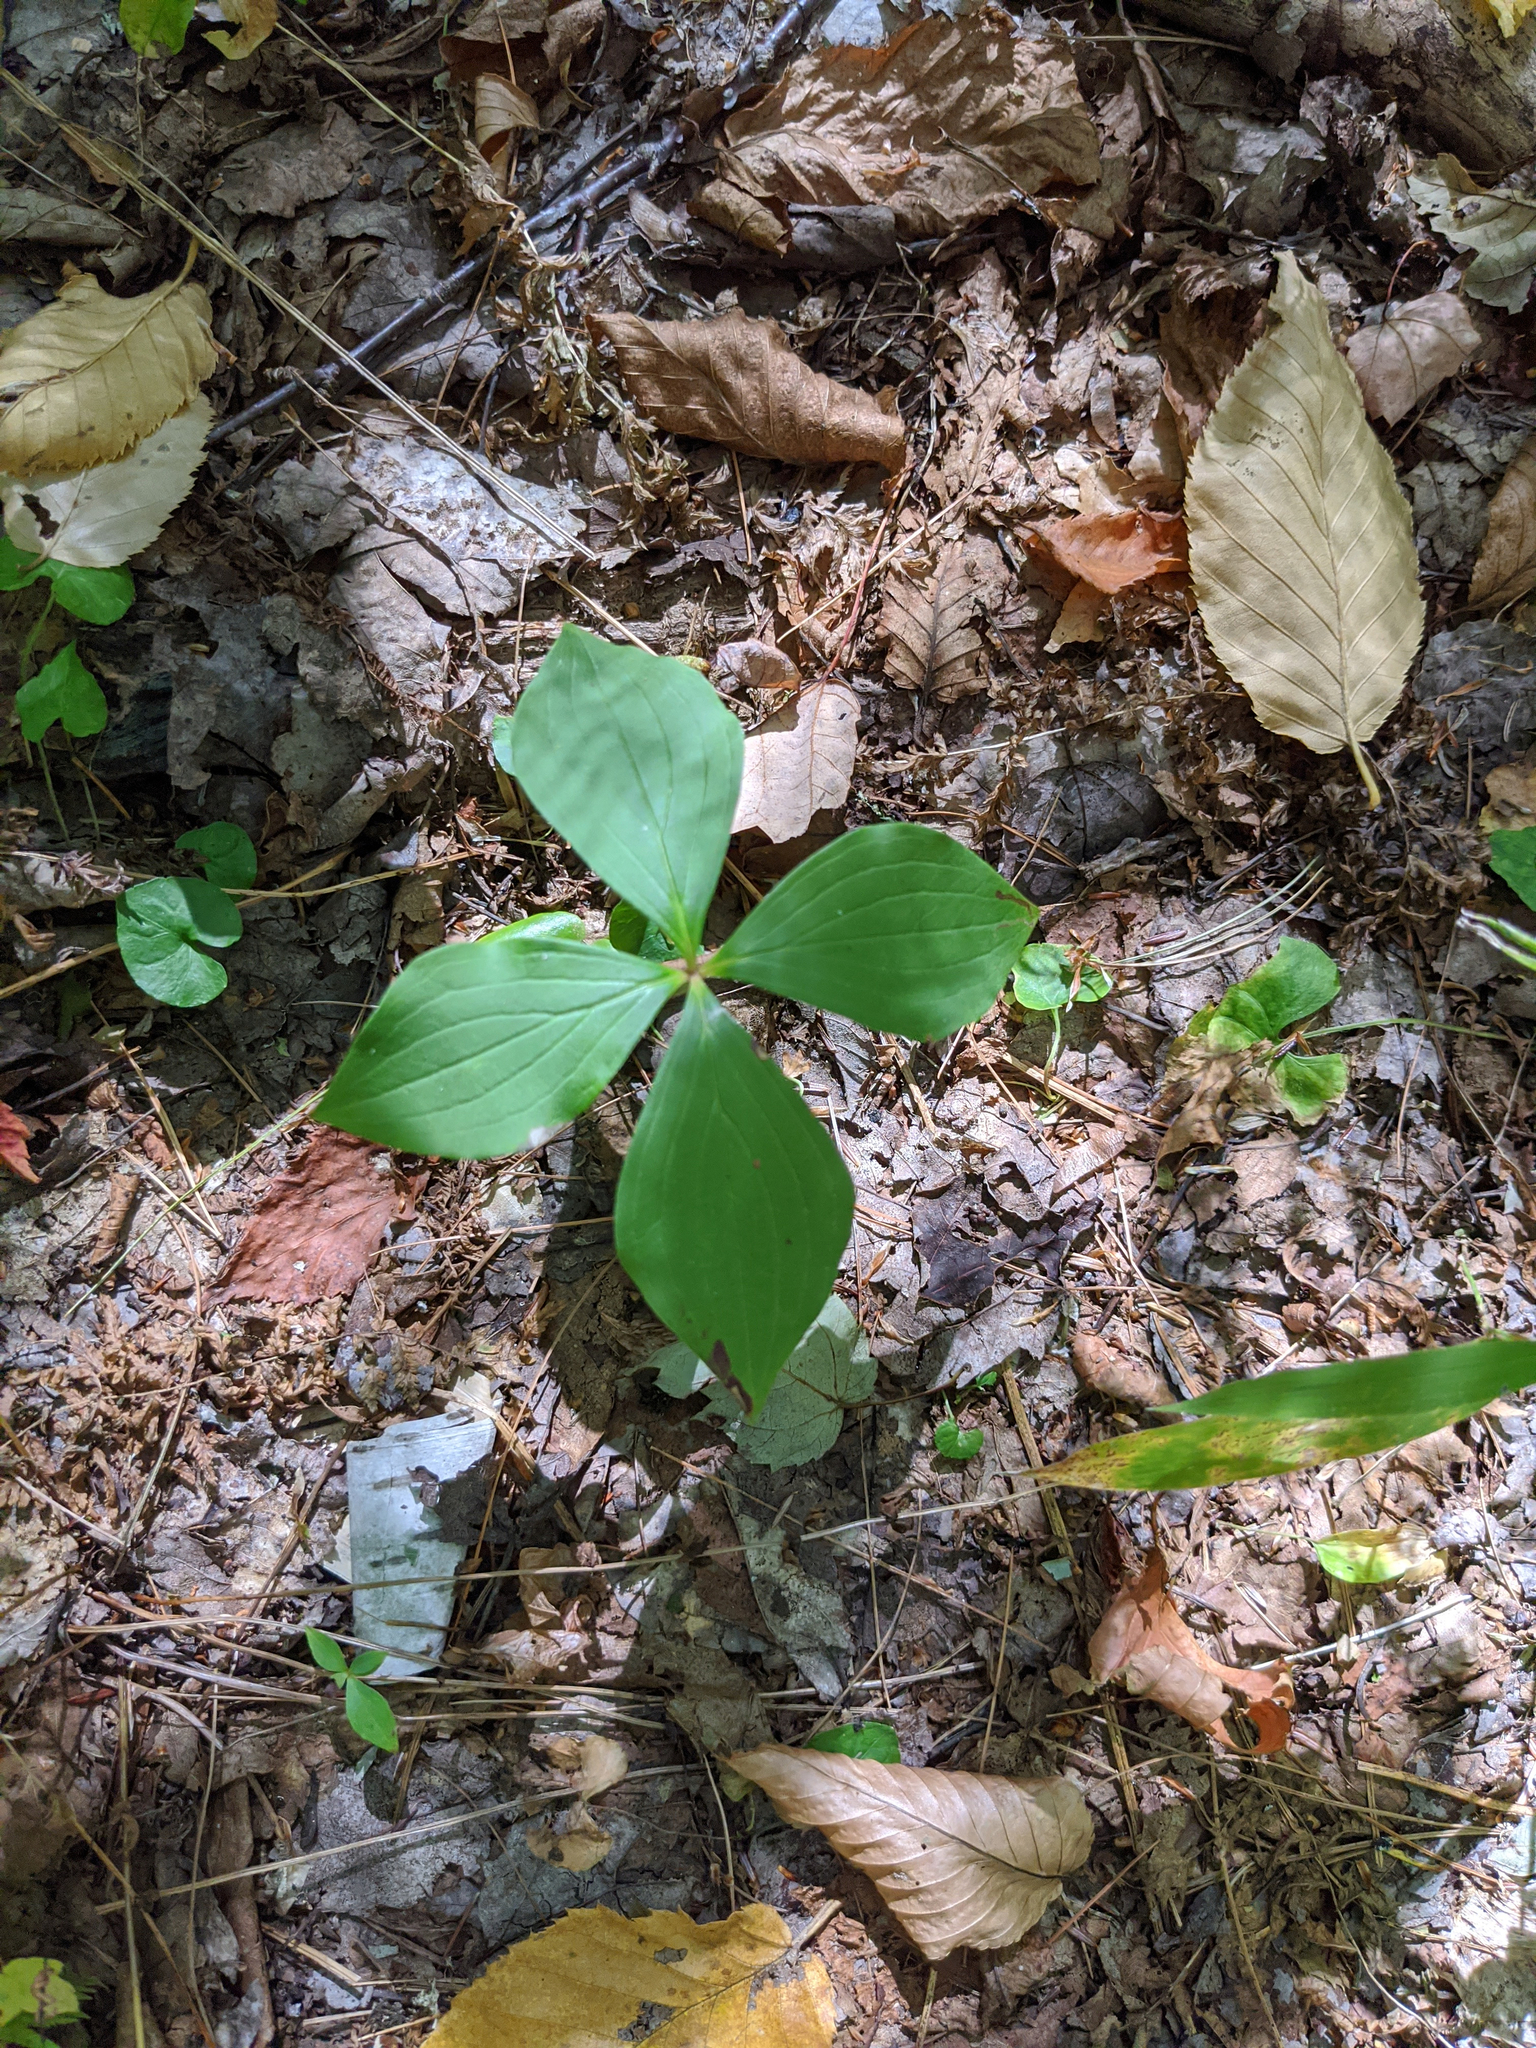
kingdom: Plantae
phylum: Tracheophyta
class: Magnoliopsida
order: Cornales
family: Cornaceae
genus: Cornus
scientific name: Cornus canadensis
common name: Creeping dogwood
